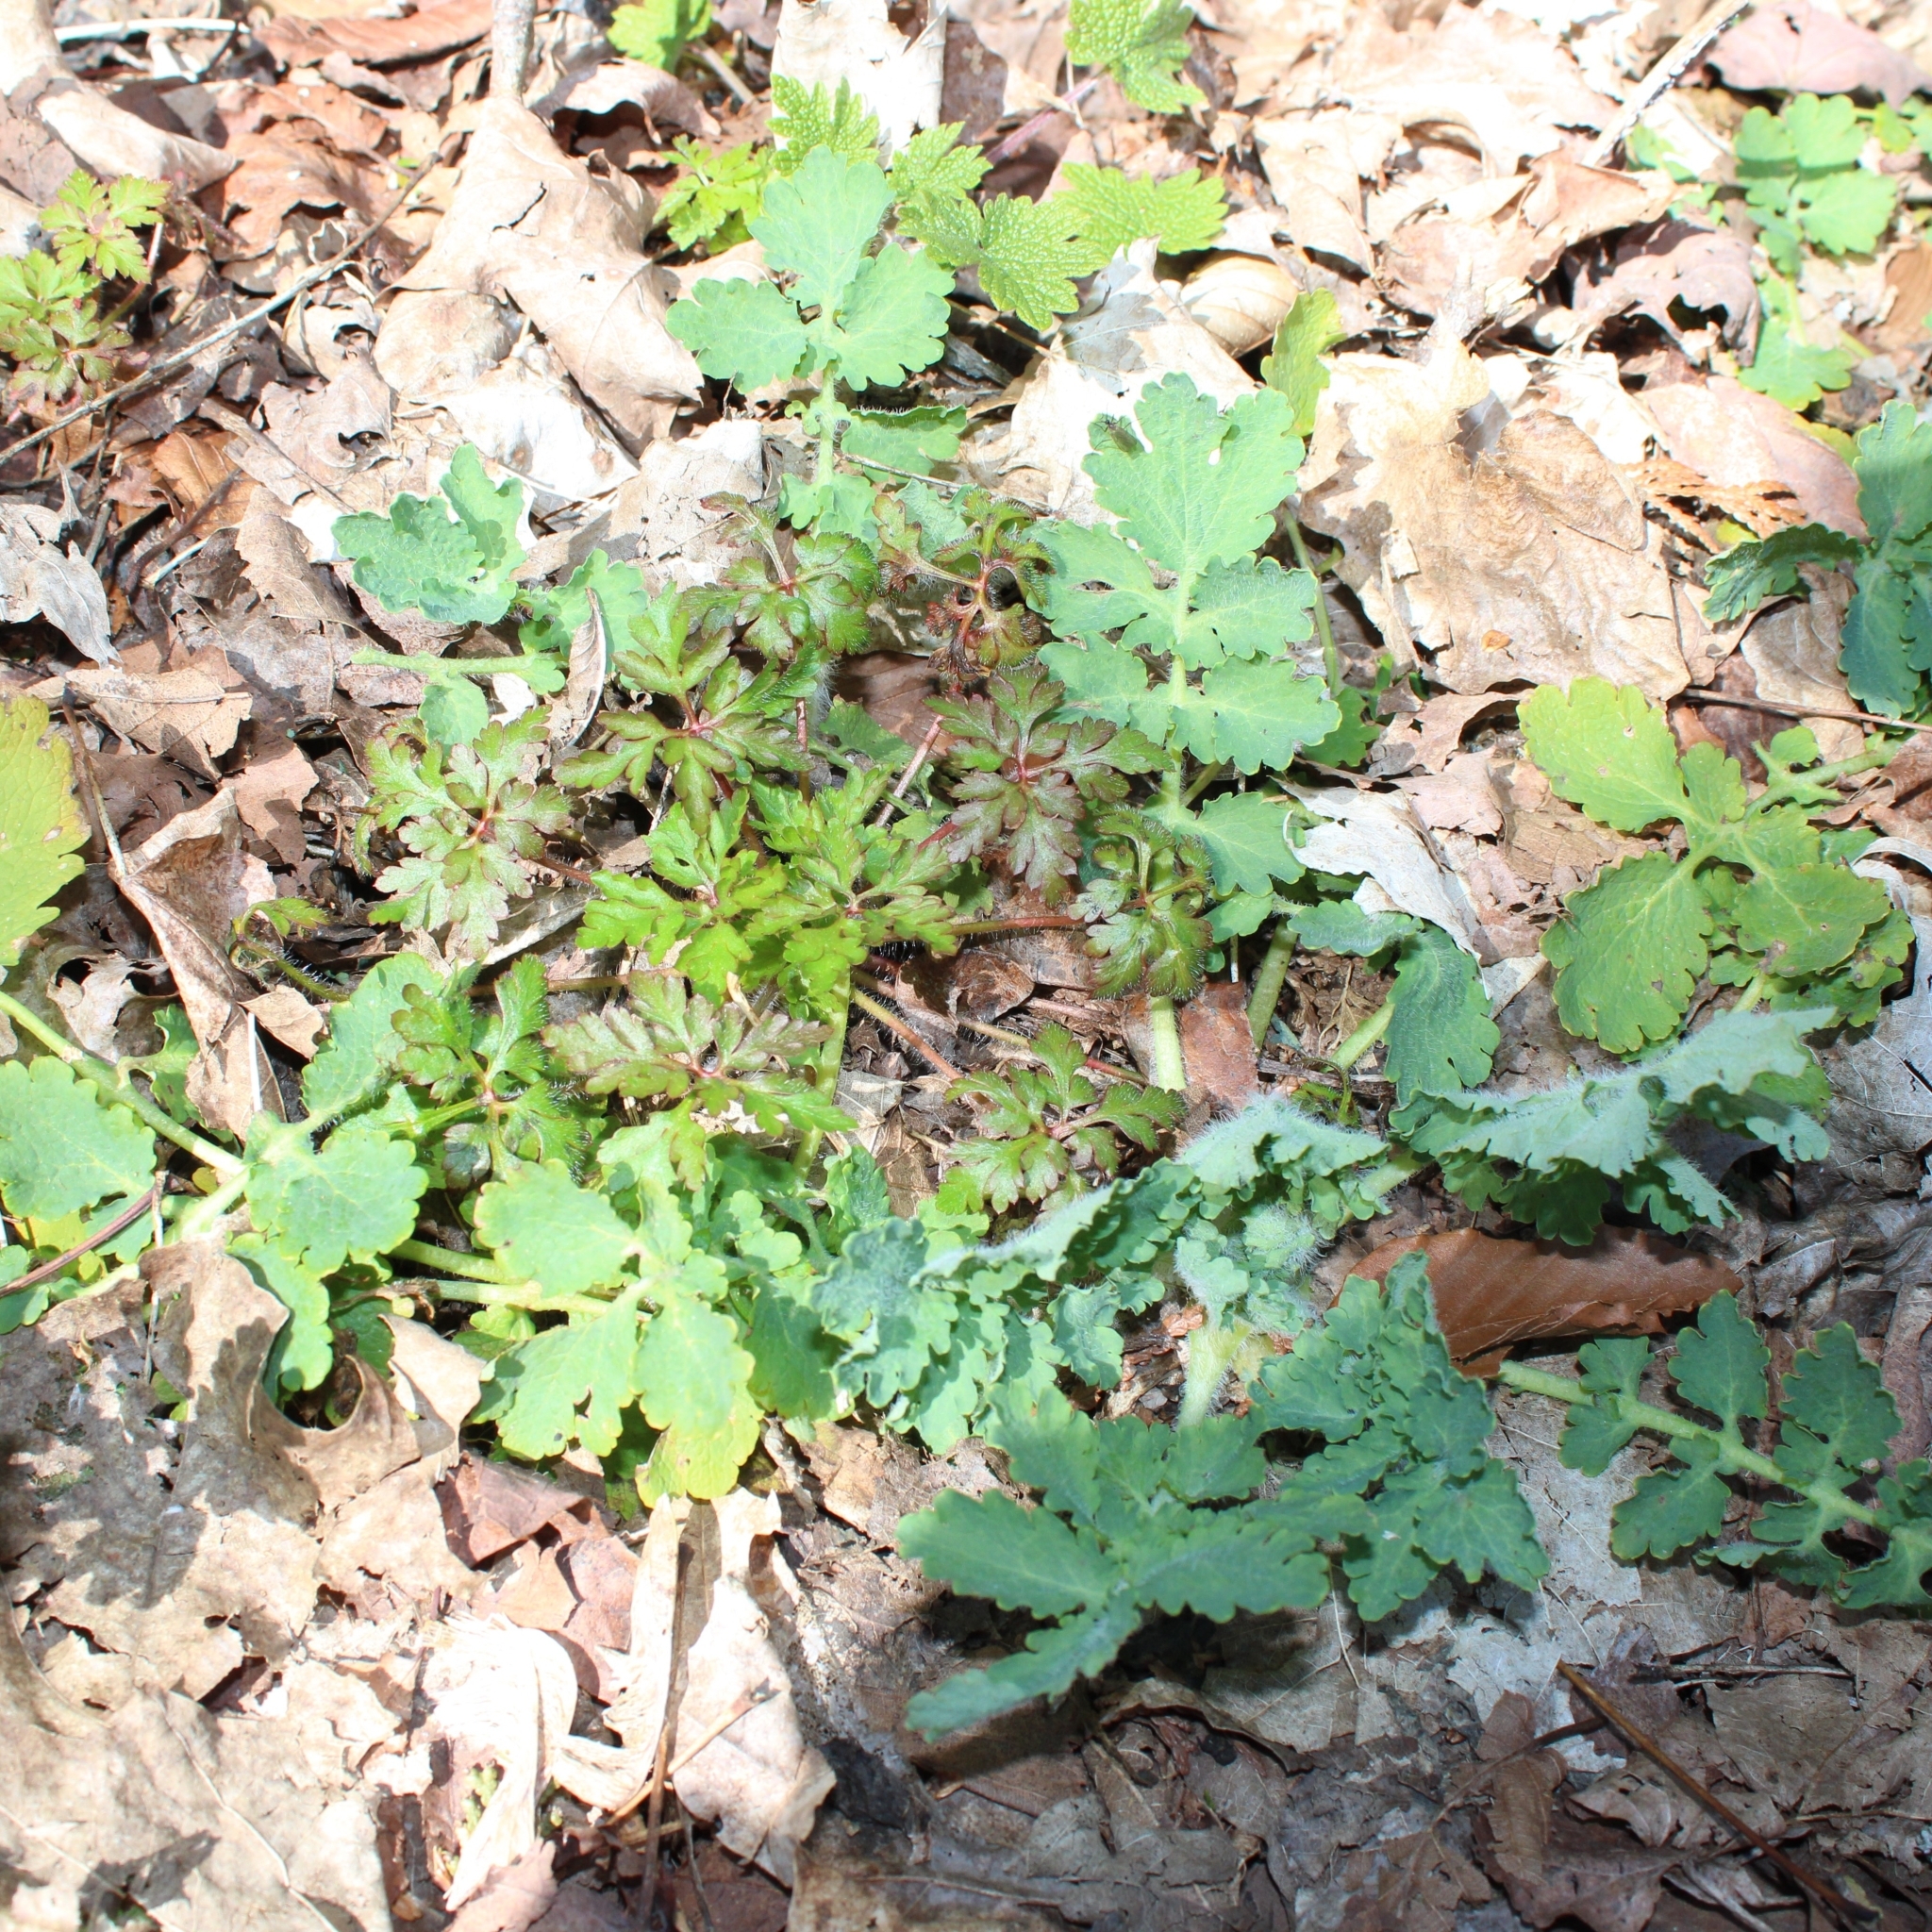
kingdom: Plantae
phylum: Tracheophyta
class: Magnoliopsida
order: Ranunculales
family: Papaveraceae
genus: Chelidonium
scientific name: Chelidonium majus
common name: Greater celandine
